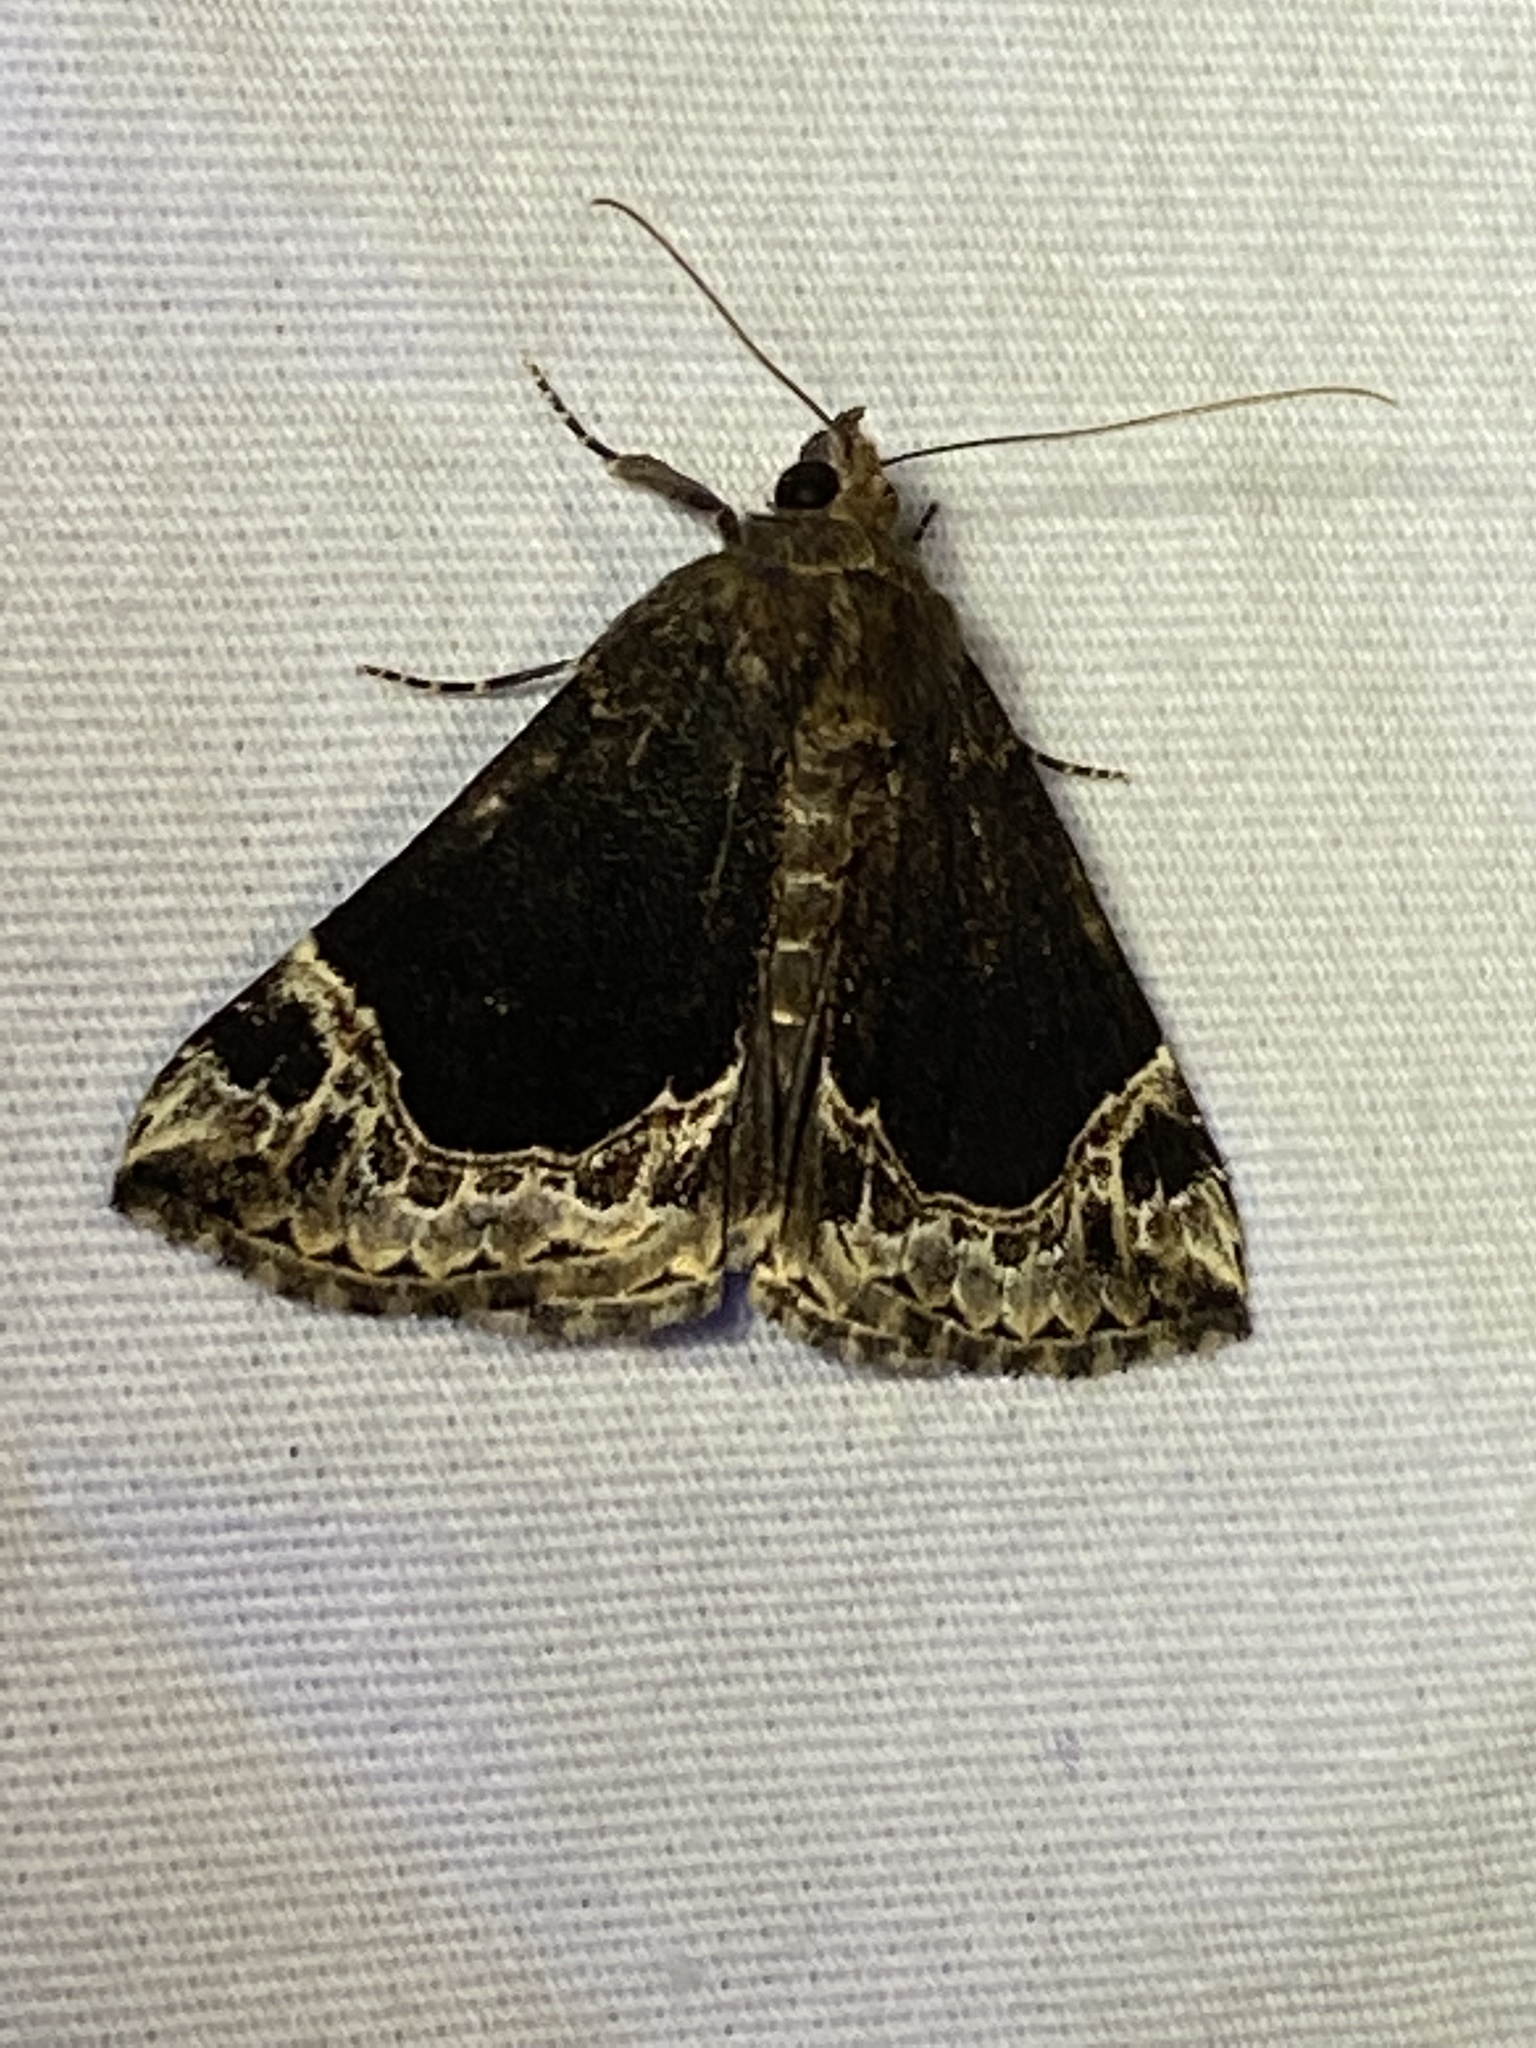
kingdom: Animalia
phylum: Arthropoda
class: Insecta
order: Lepidoptera
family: Erebidae
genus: Hypena
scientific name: Hypena abalienalis
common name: White-lined snout
